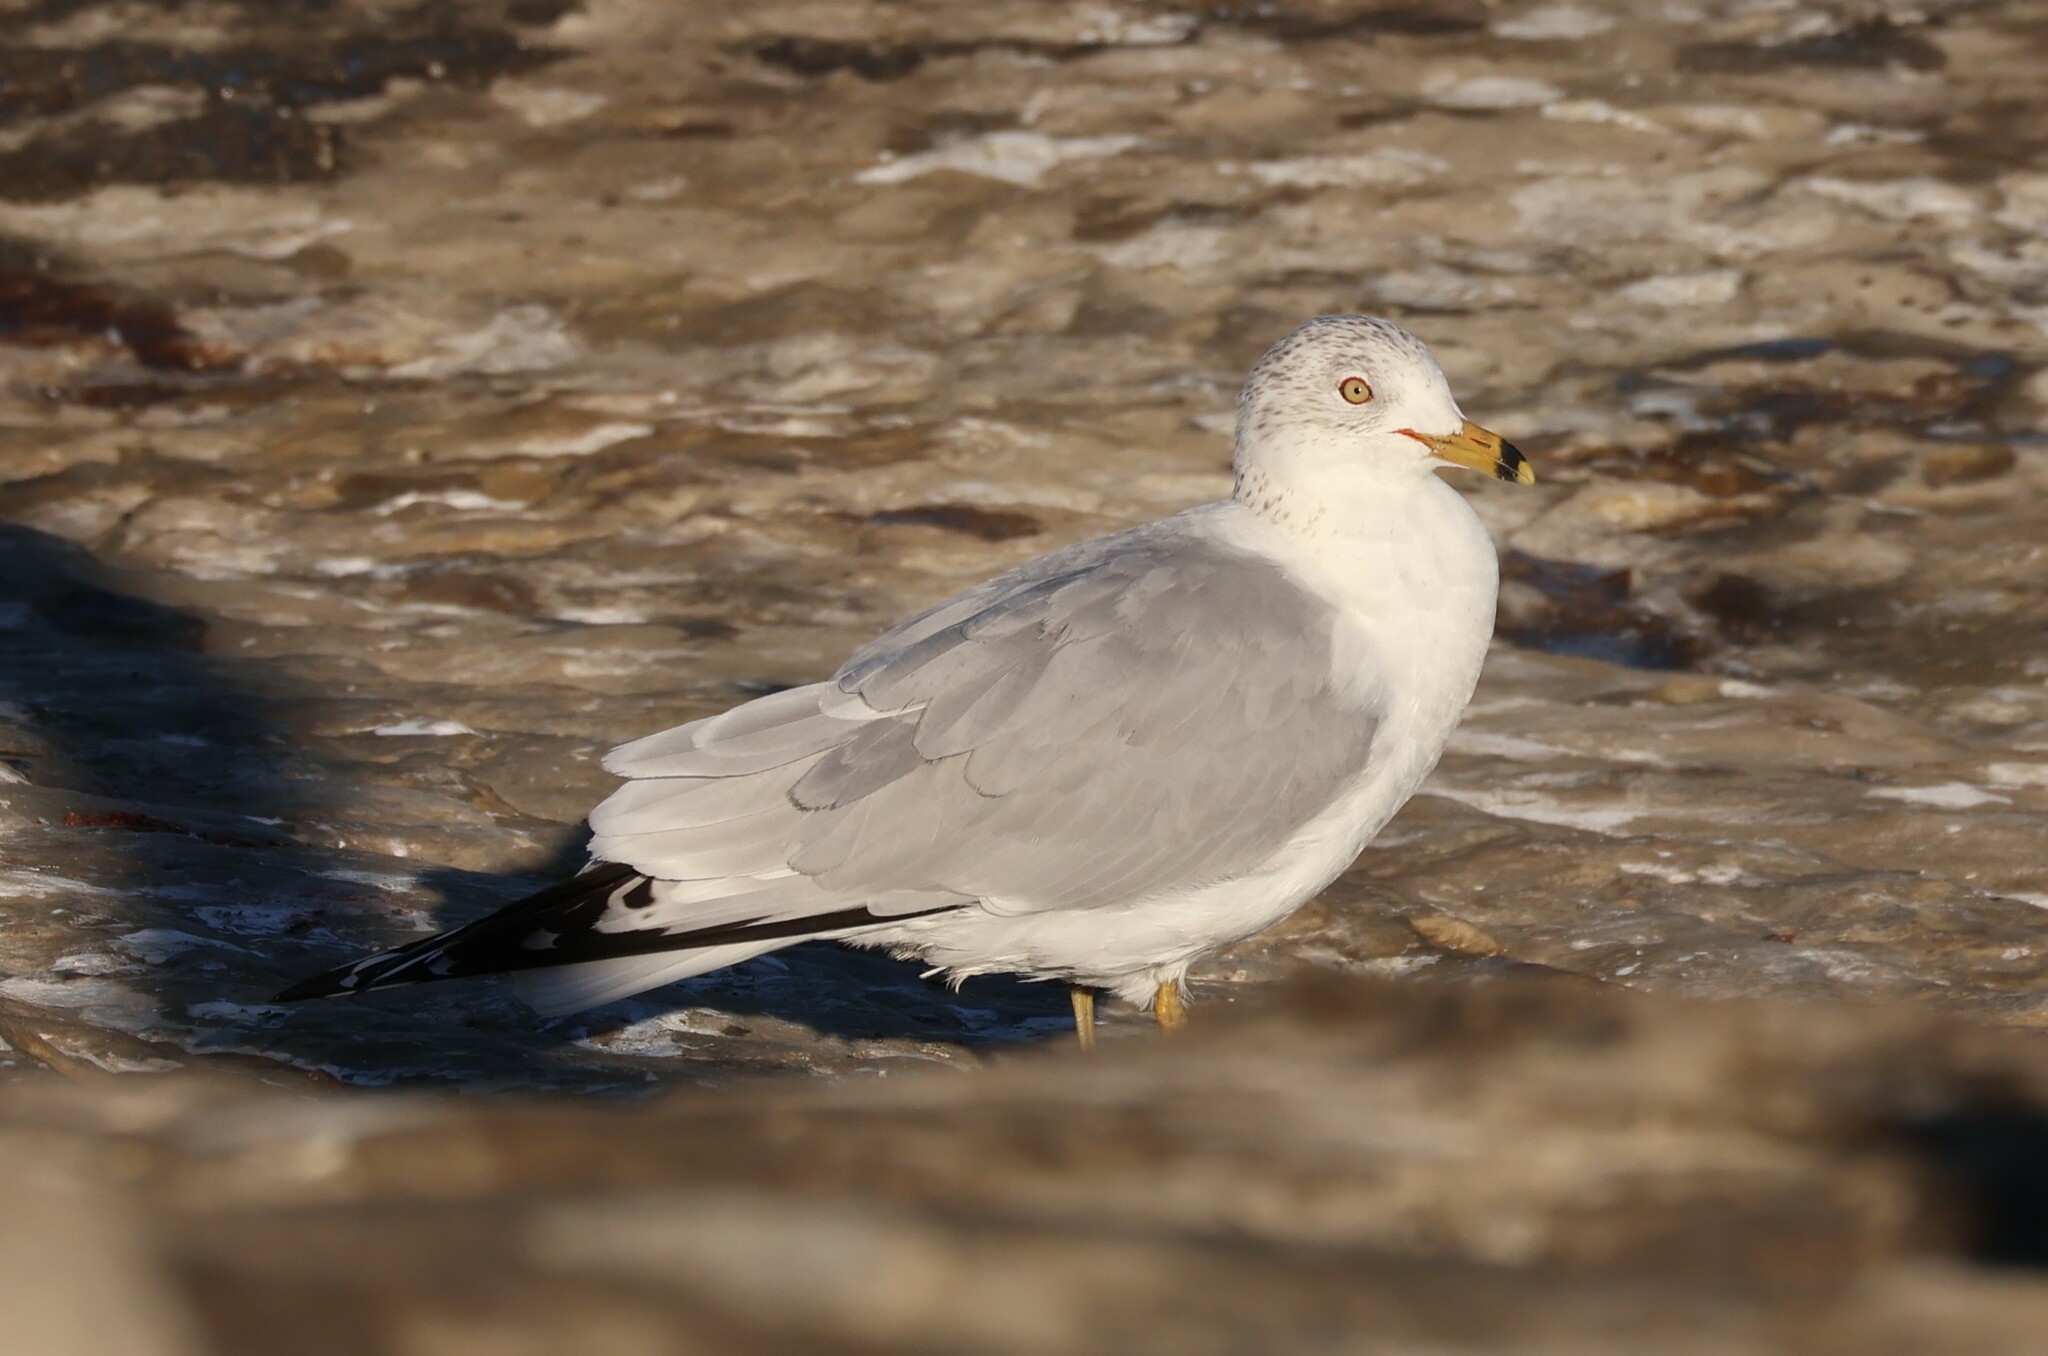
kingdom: Animalia
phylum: Chordata
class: Aves
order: Charadriiformes
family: Laridae
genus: Larus
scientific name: Larus delawarensis
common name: Ring-billed gull
